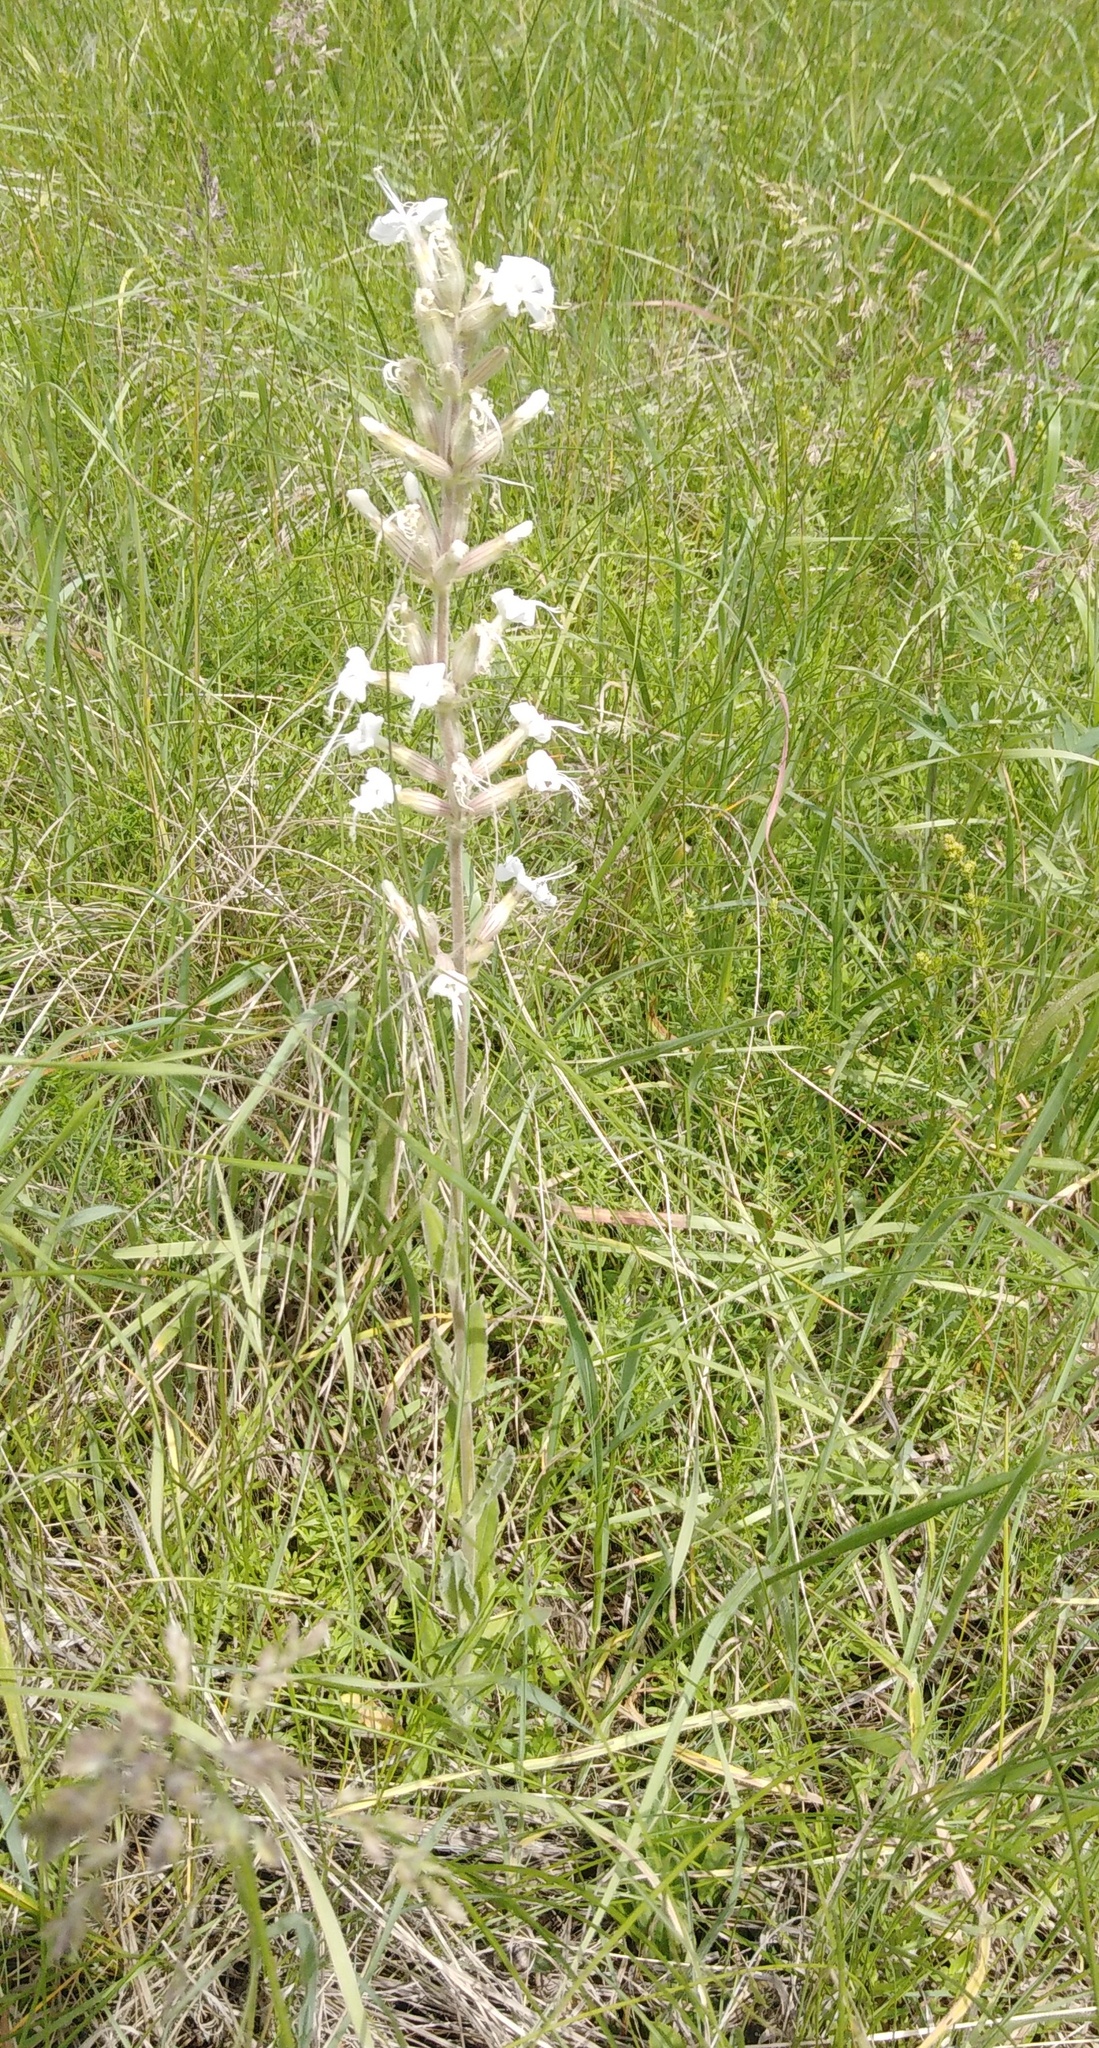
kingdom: Plantae
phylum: Tracheophyta
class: Magnoliopsida
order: Caryophyllales
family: Caryophyllaceae
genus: Silene
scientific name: Silene viscosa
